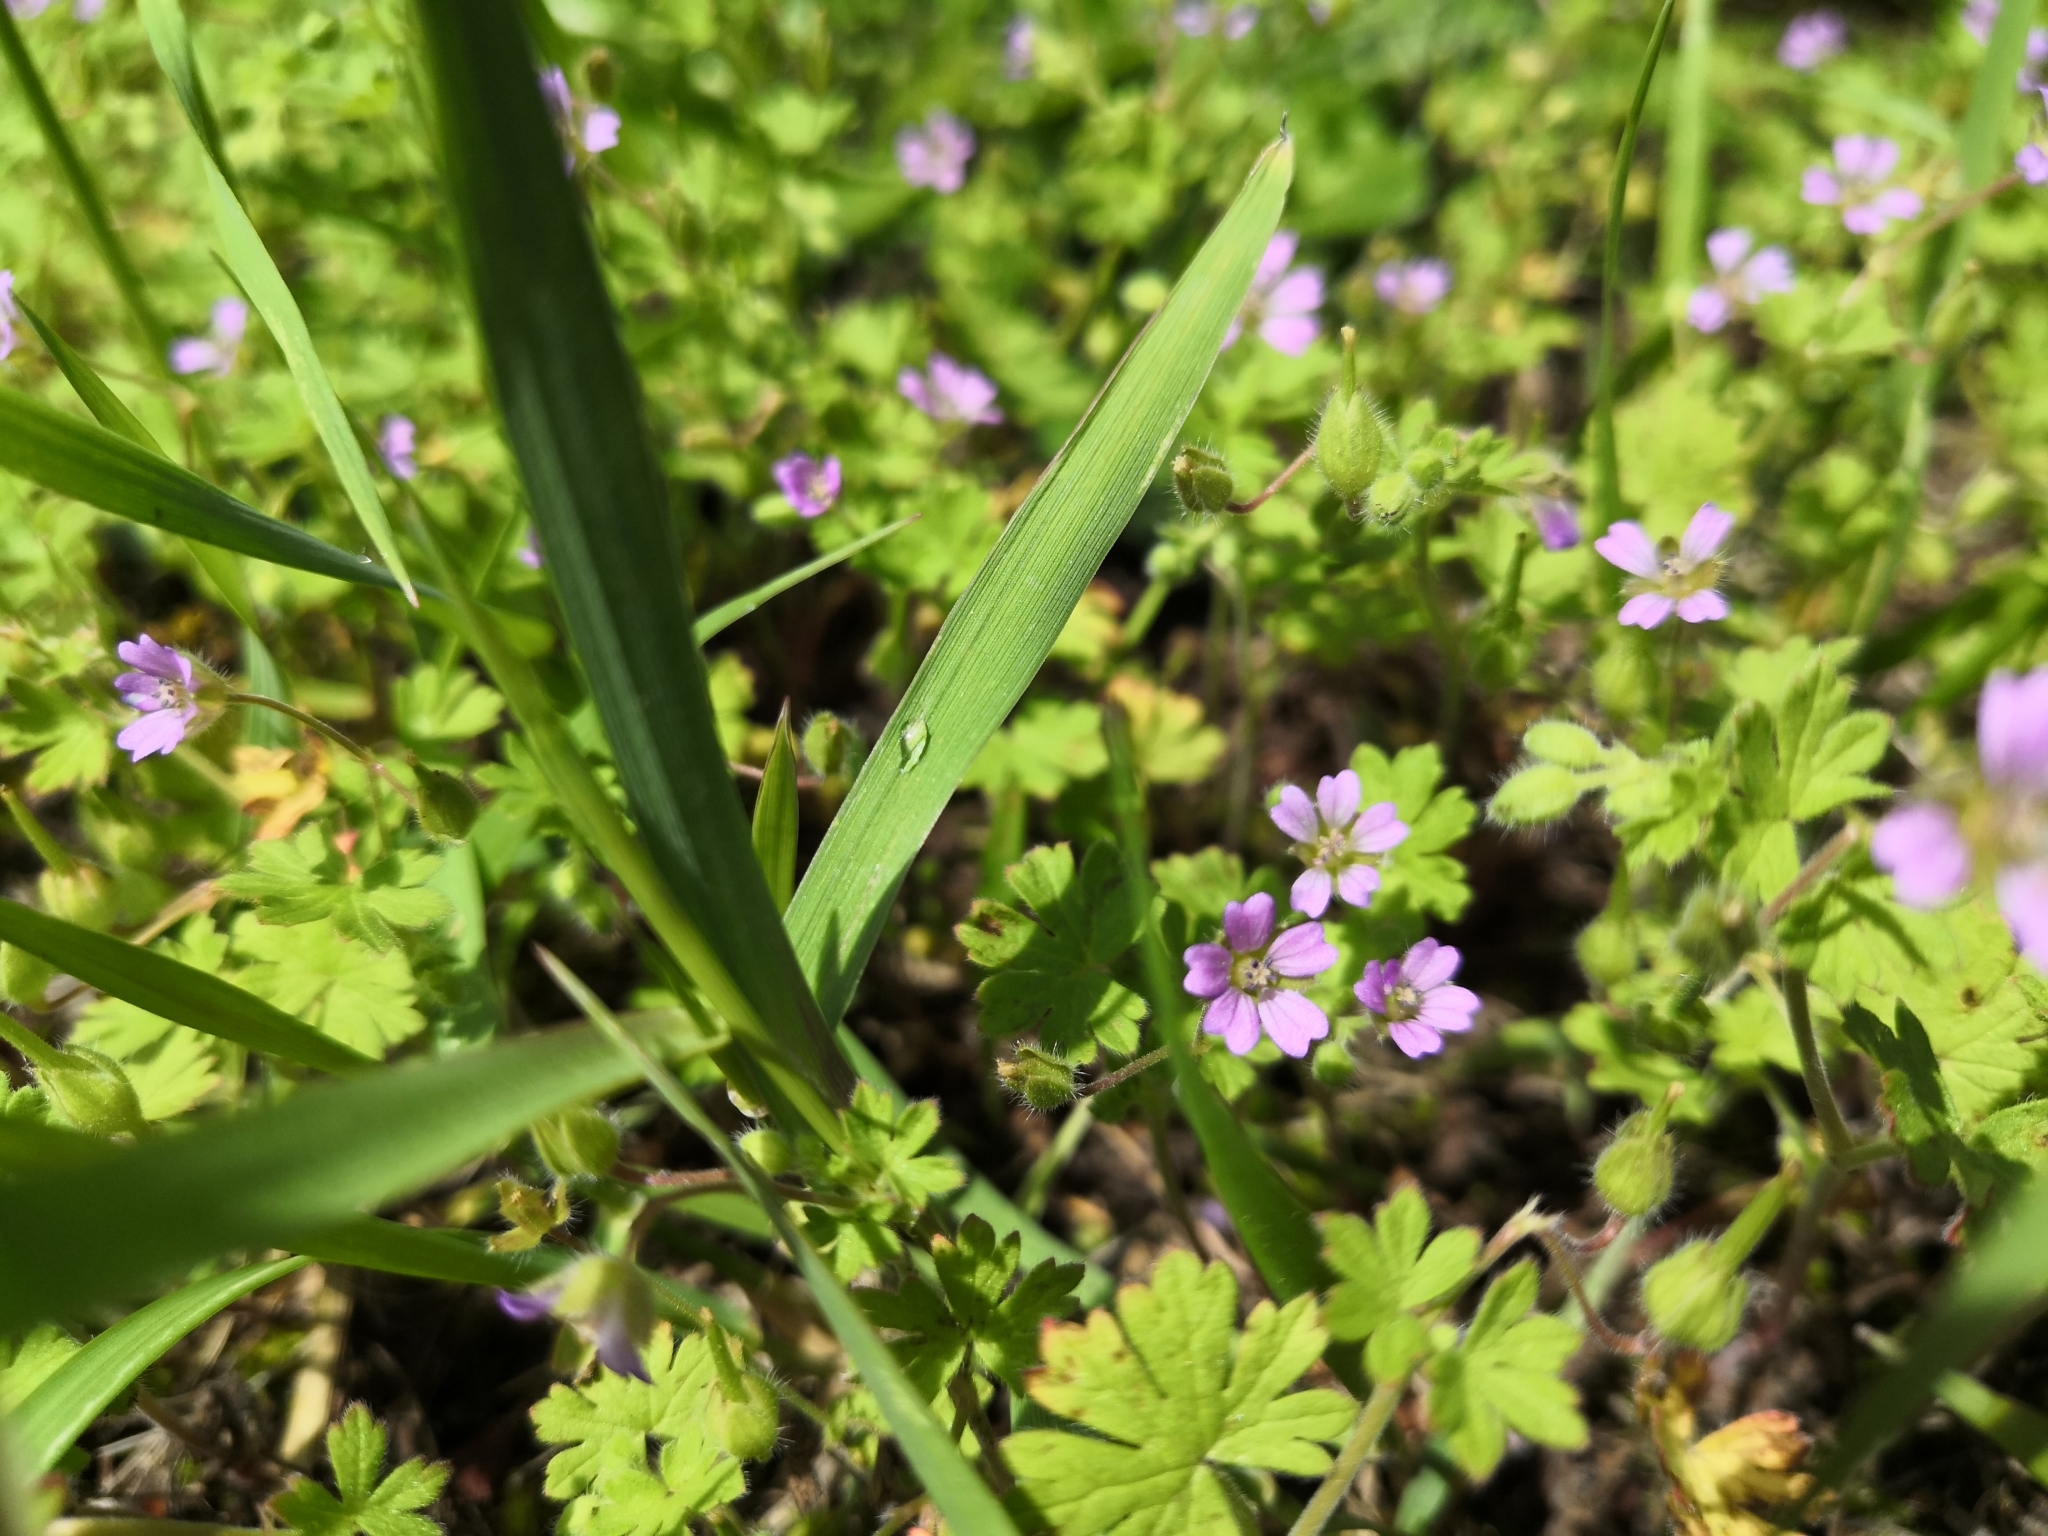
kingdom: Plantae
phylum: Tracheophyta
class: Magnoliopsida
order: Geraniales
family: Geraniaceae
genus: Geranium
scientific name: Geranium pusillum
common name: Small geranium
